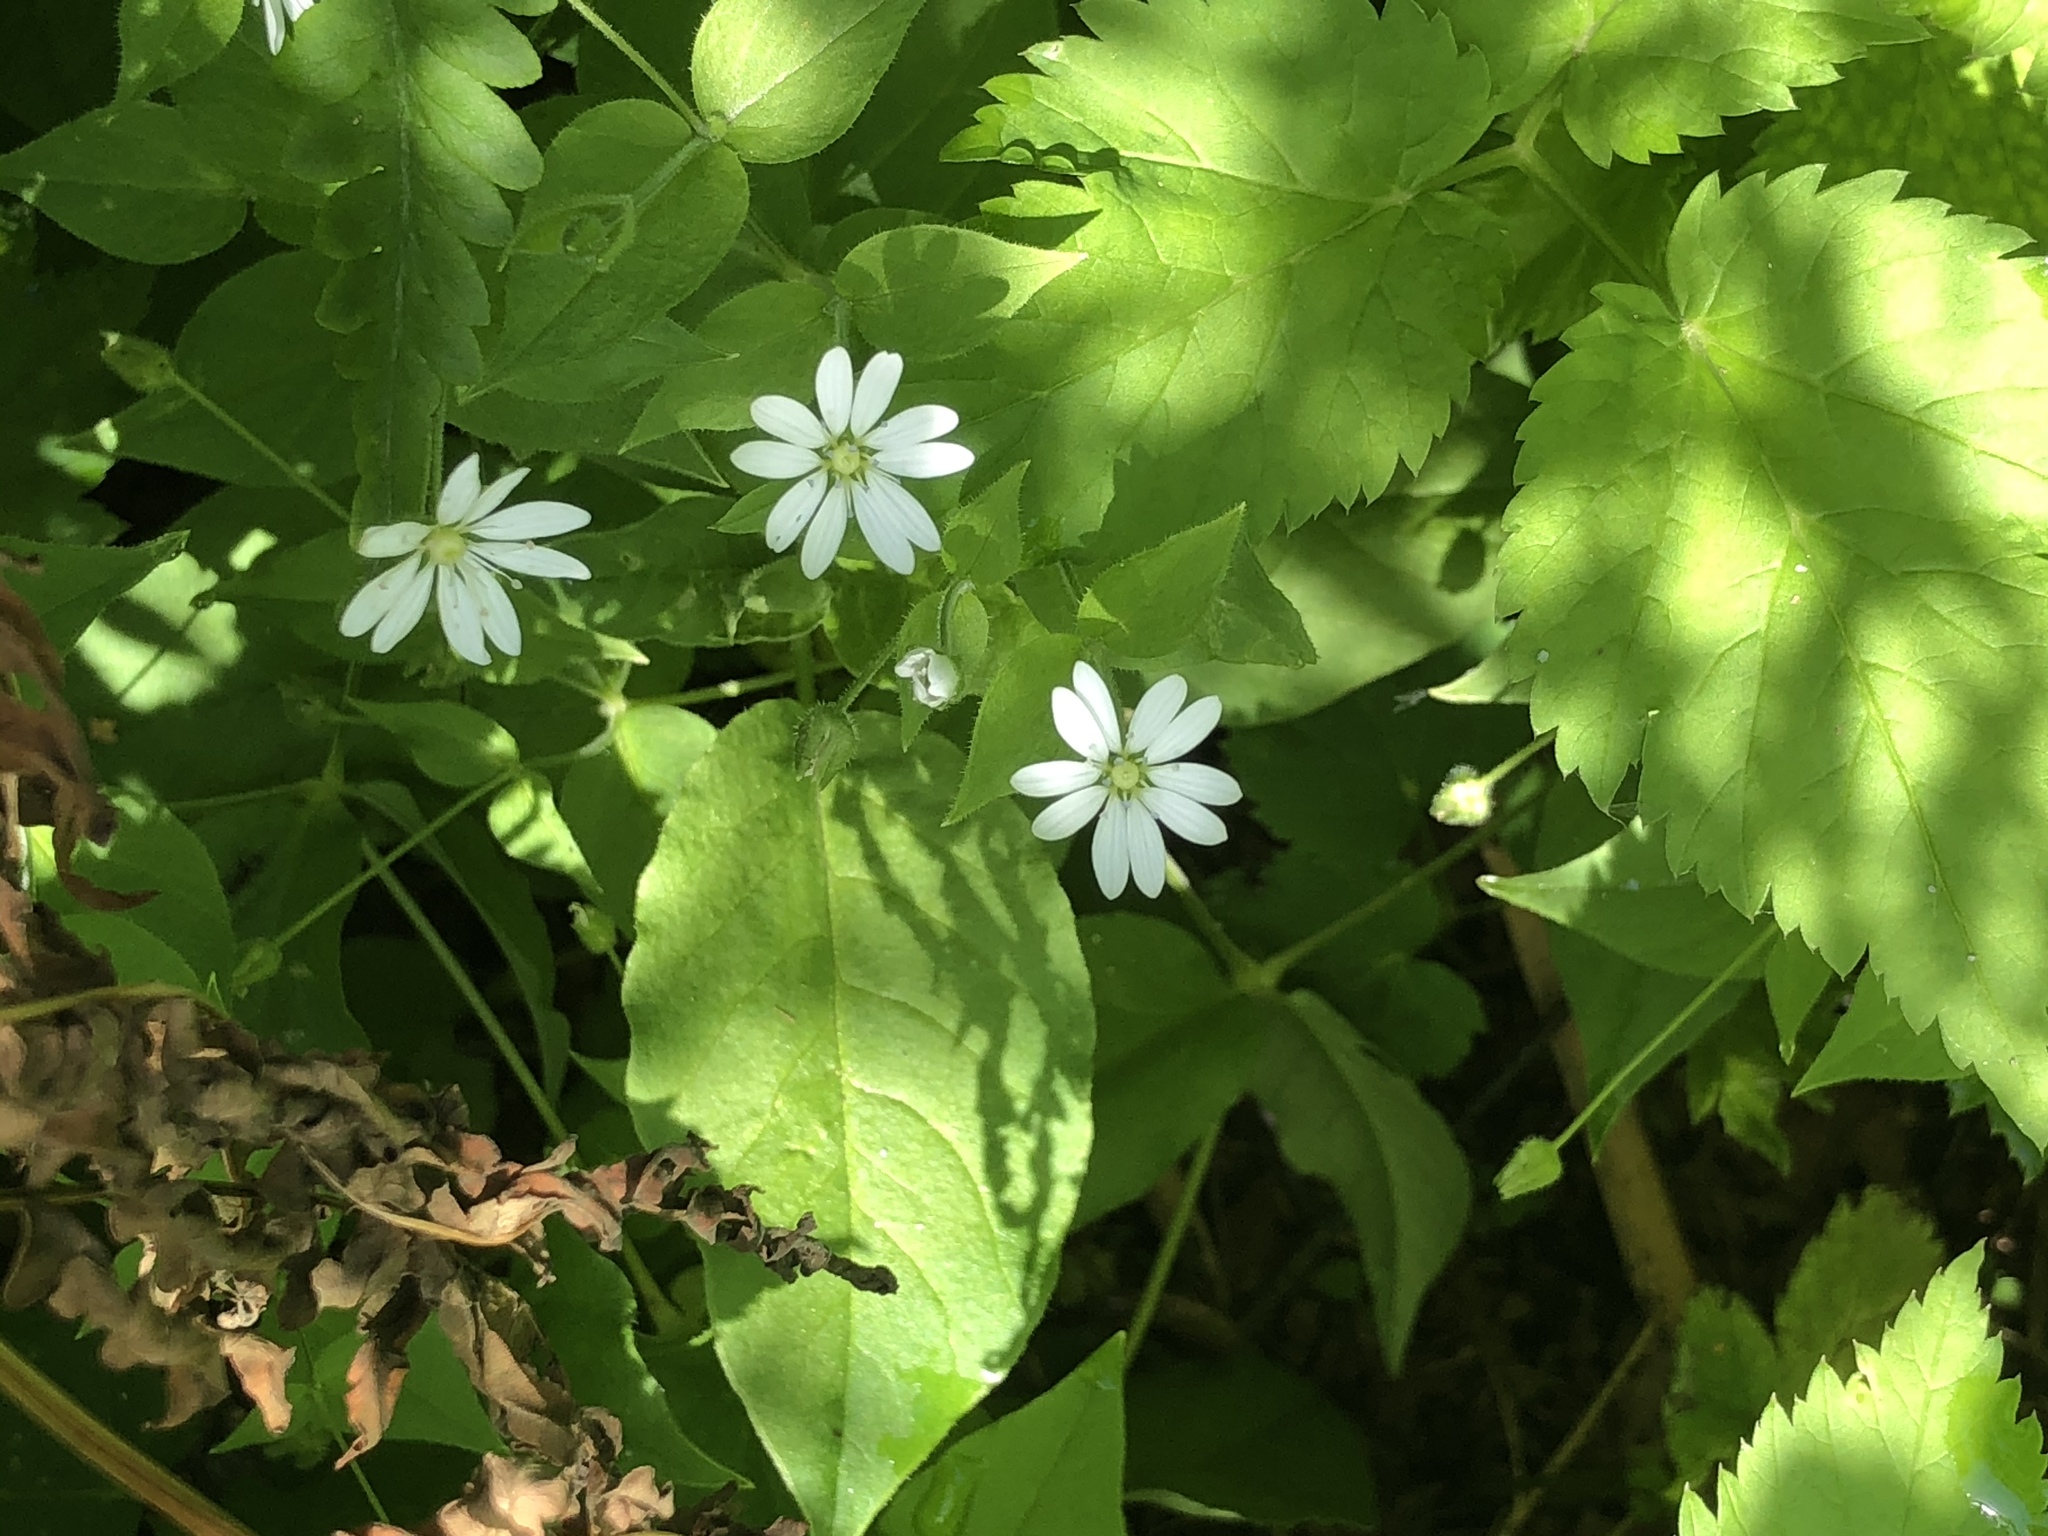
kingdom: Plantae
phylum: Tracheophyta
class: Magnoliopsida
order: Caryophyllales
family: Caryophyllaceae
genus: Stellaria
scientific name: Stellaria bungeana
